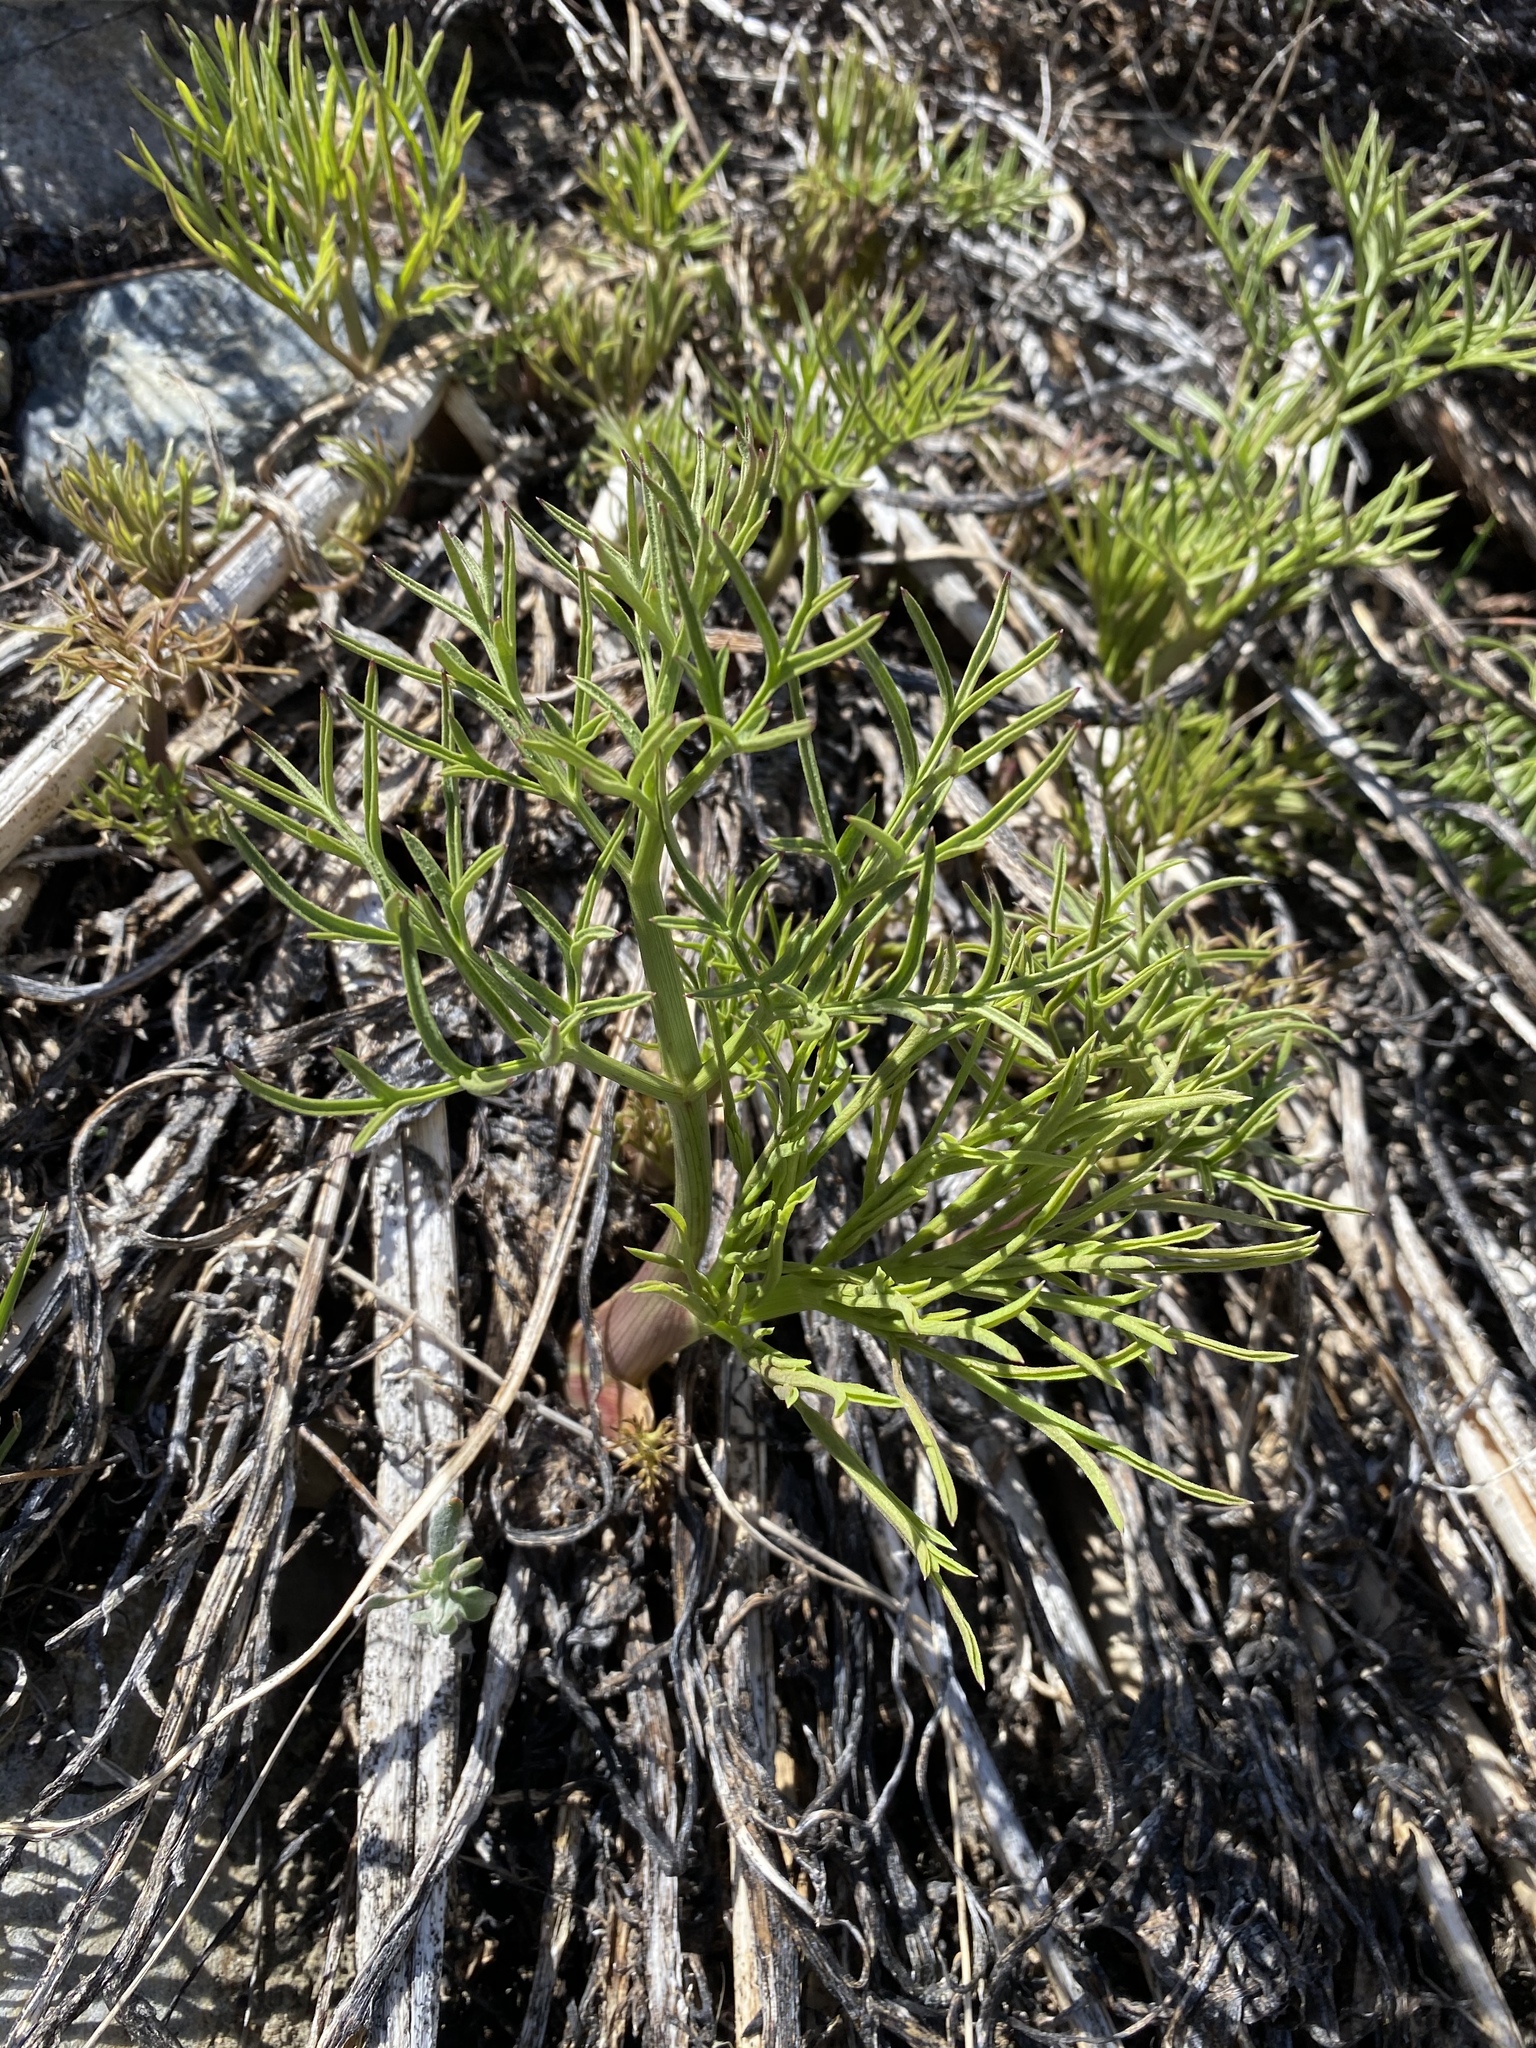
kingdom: Plantae
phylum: Tracheophyta
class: Magnoliopsida
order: Apiales
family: Apiaceae
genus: Angelica
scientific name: Angelica lineariloba
